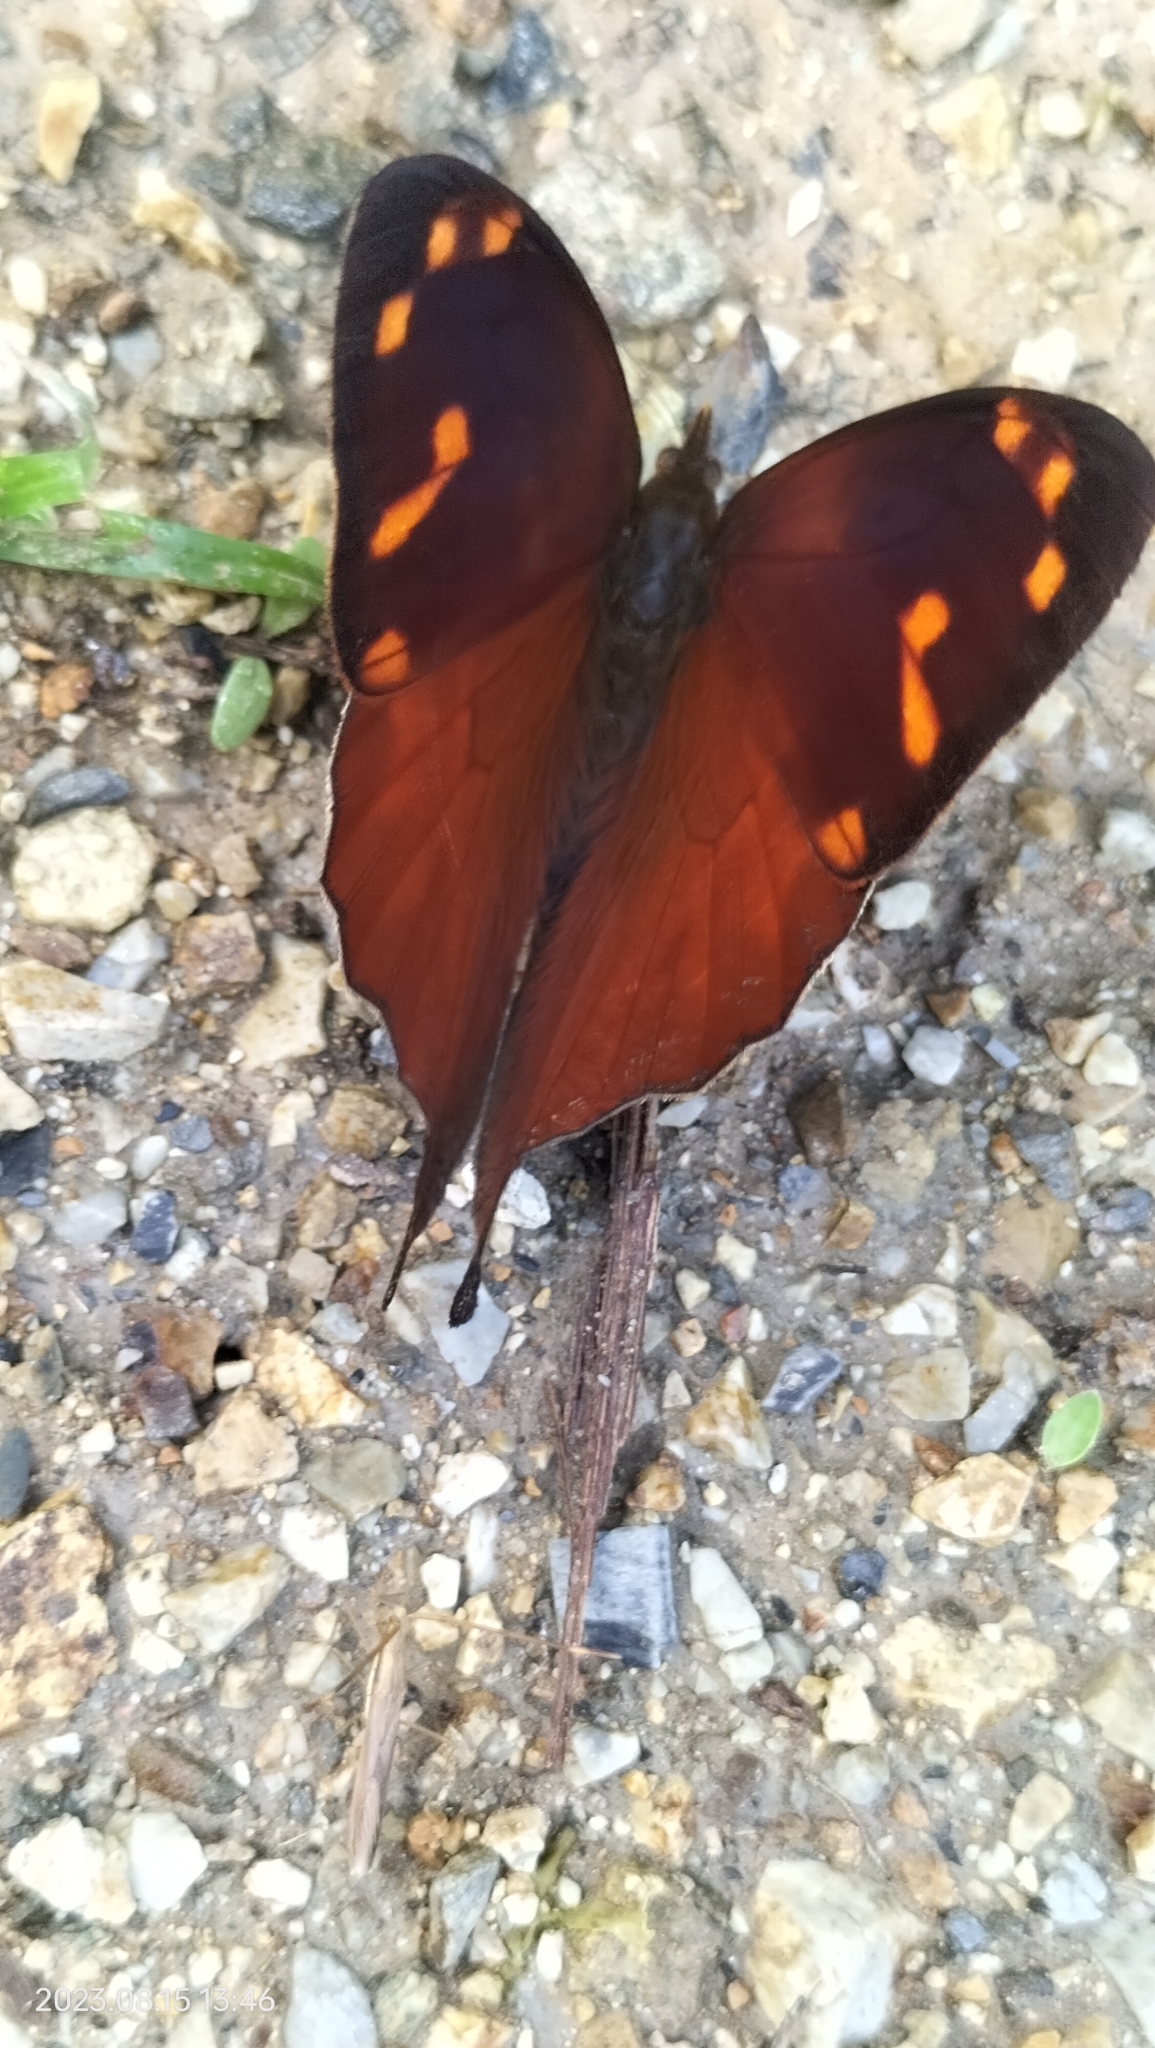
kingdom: Animalia
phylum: Arthropoda
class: Insecta
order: Lepidoptera
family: Nymphalidae
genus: Corades
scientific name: Corades enyo
